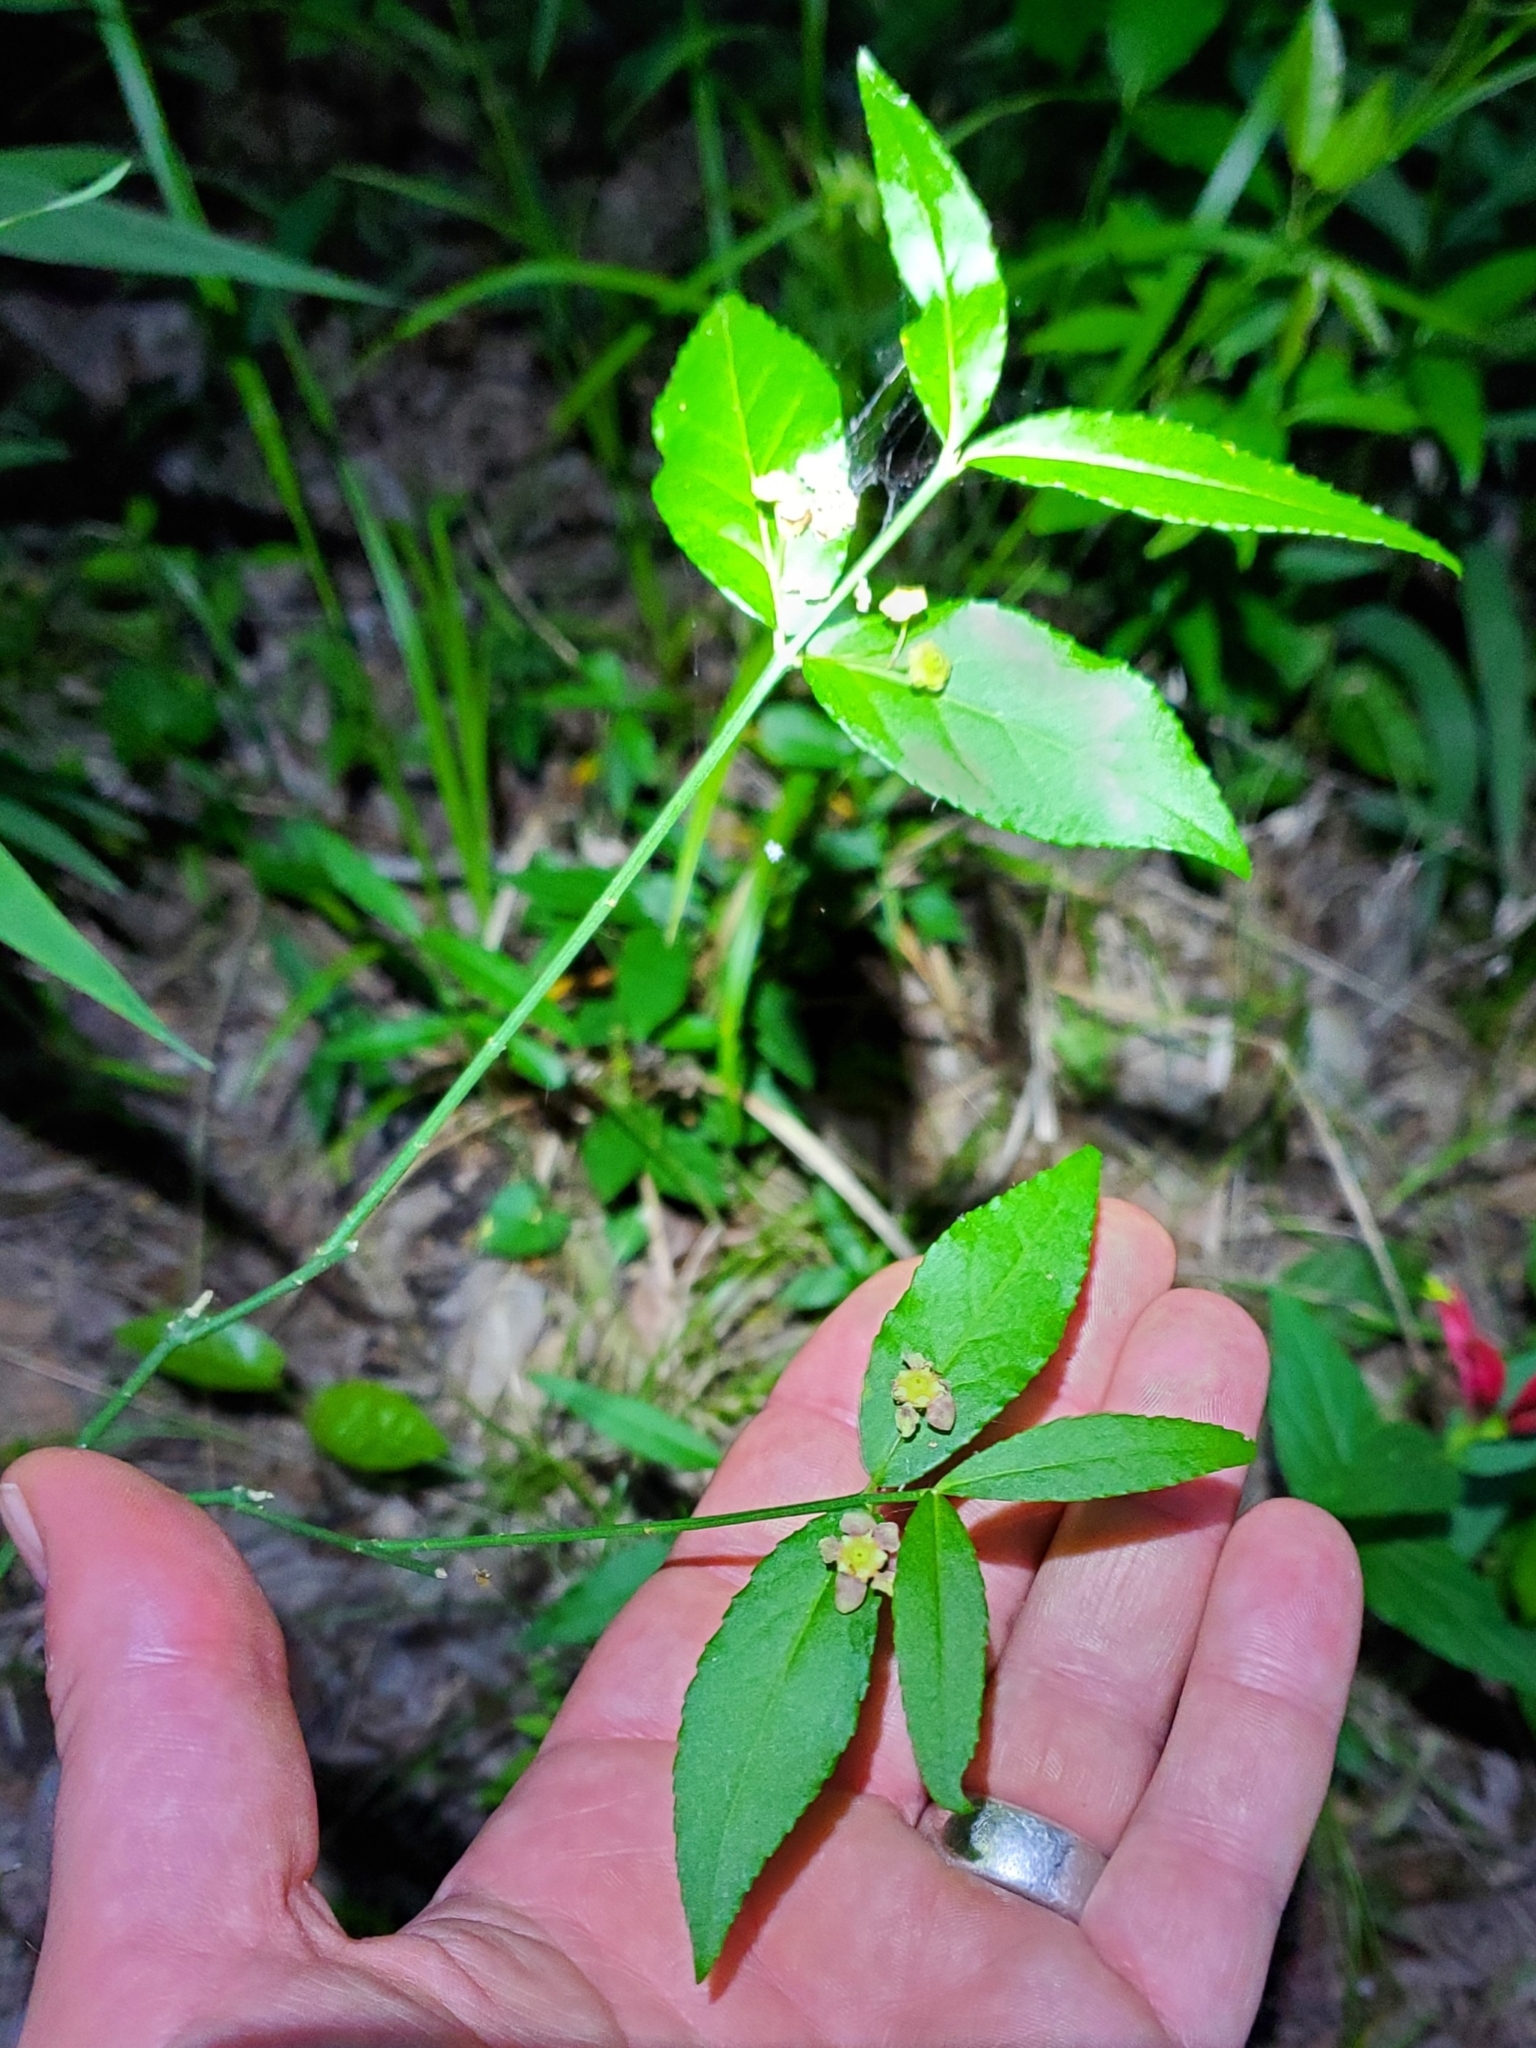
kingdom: Plantae
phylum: Tracheophyta
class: Magnoliopsida
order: Celastrales
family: Celastraceae
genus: Euonymus
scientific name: Euonymus americanus
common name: Bursting-heart
